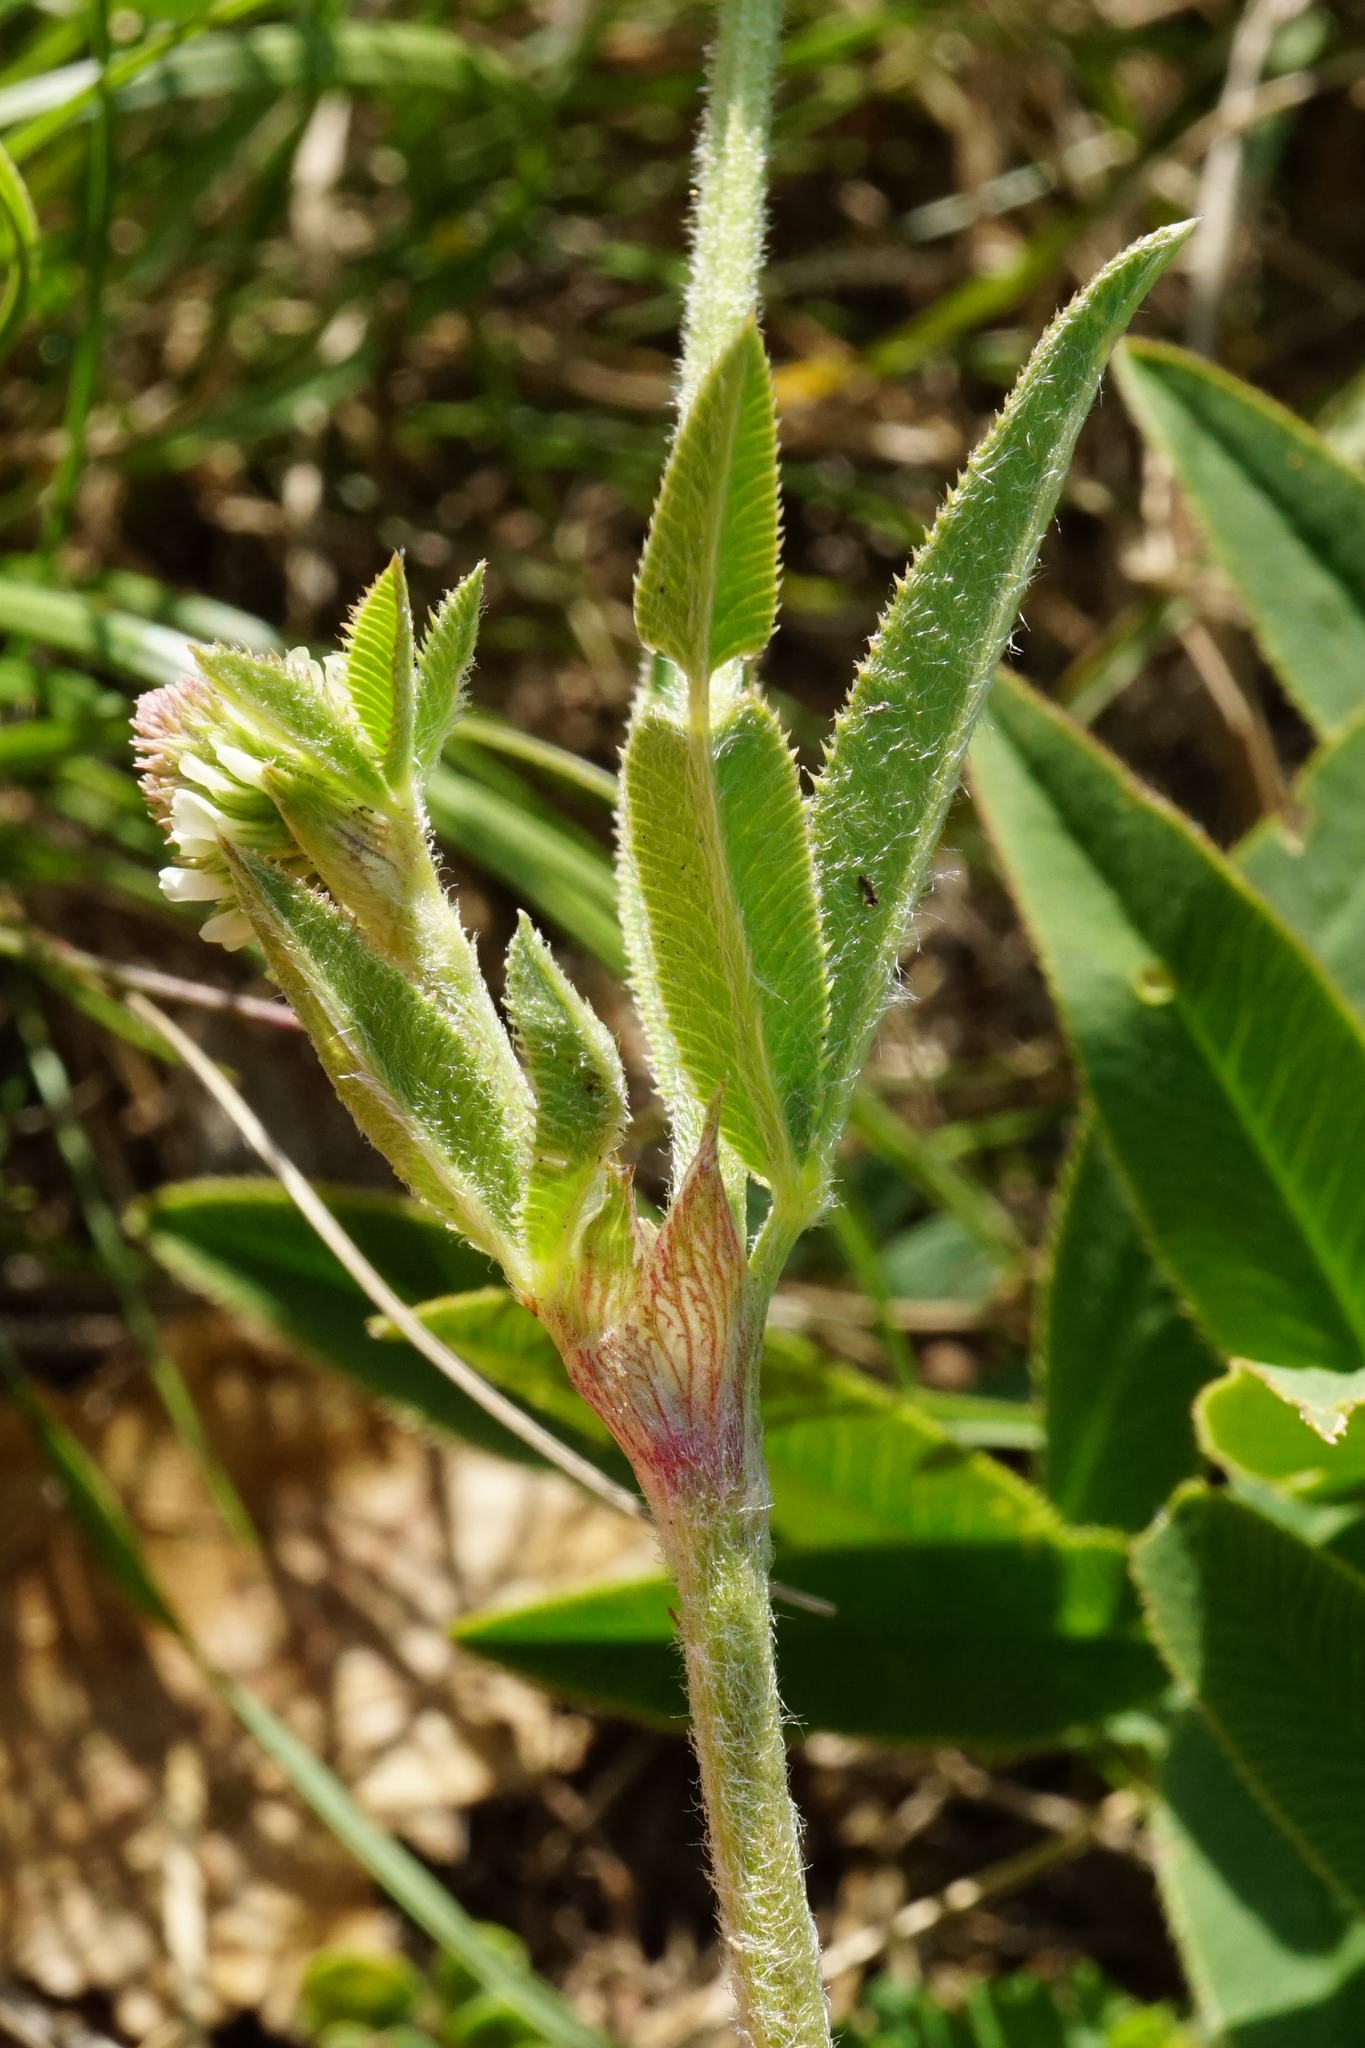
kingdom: Plantae
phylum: Tracheophyta
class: Magnoliopsida
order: Fabales
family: Fabaceae
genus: Trifolium
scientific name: Trifolium montanum
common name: Mountain clover
